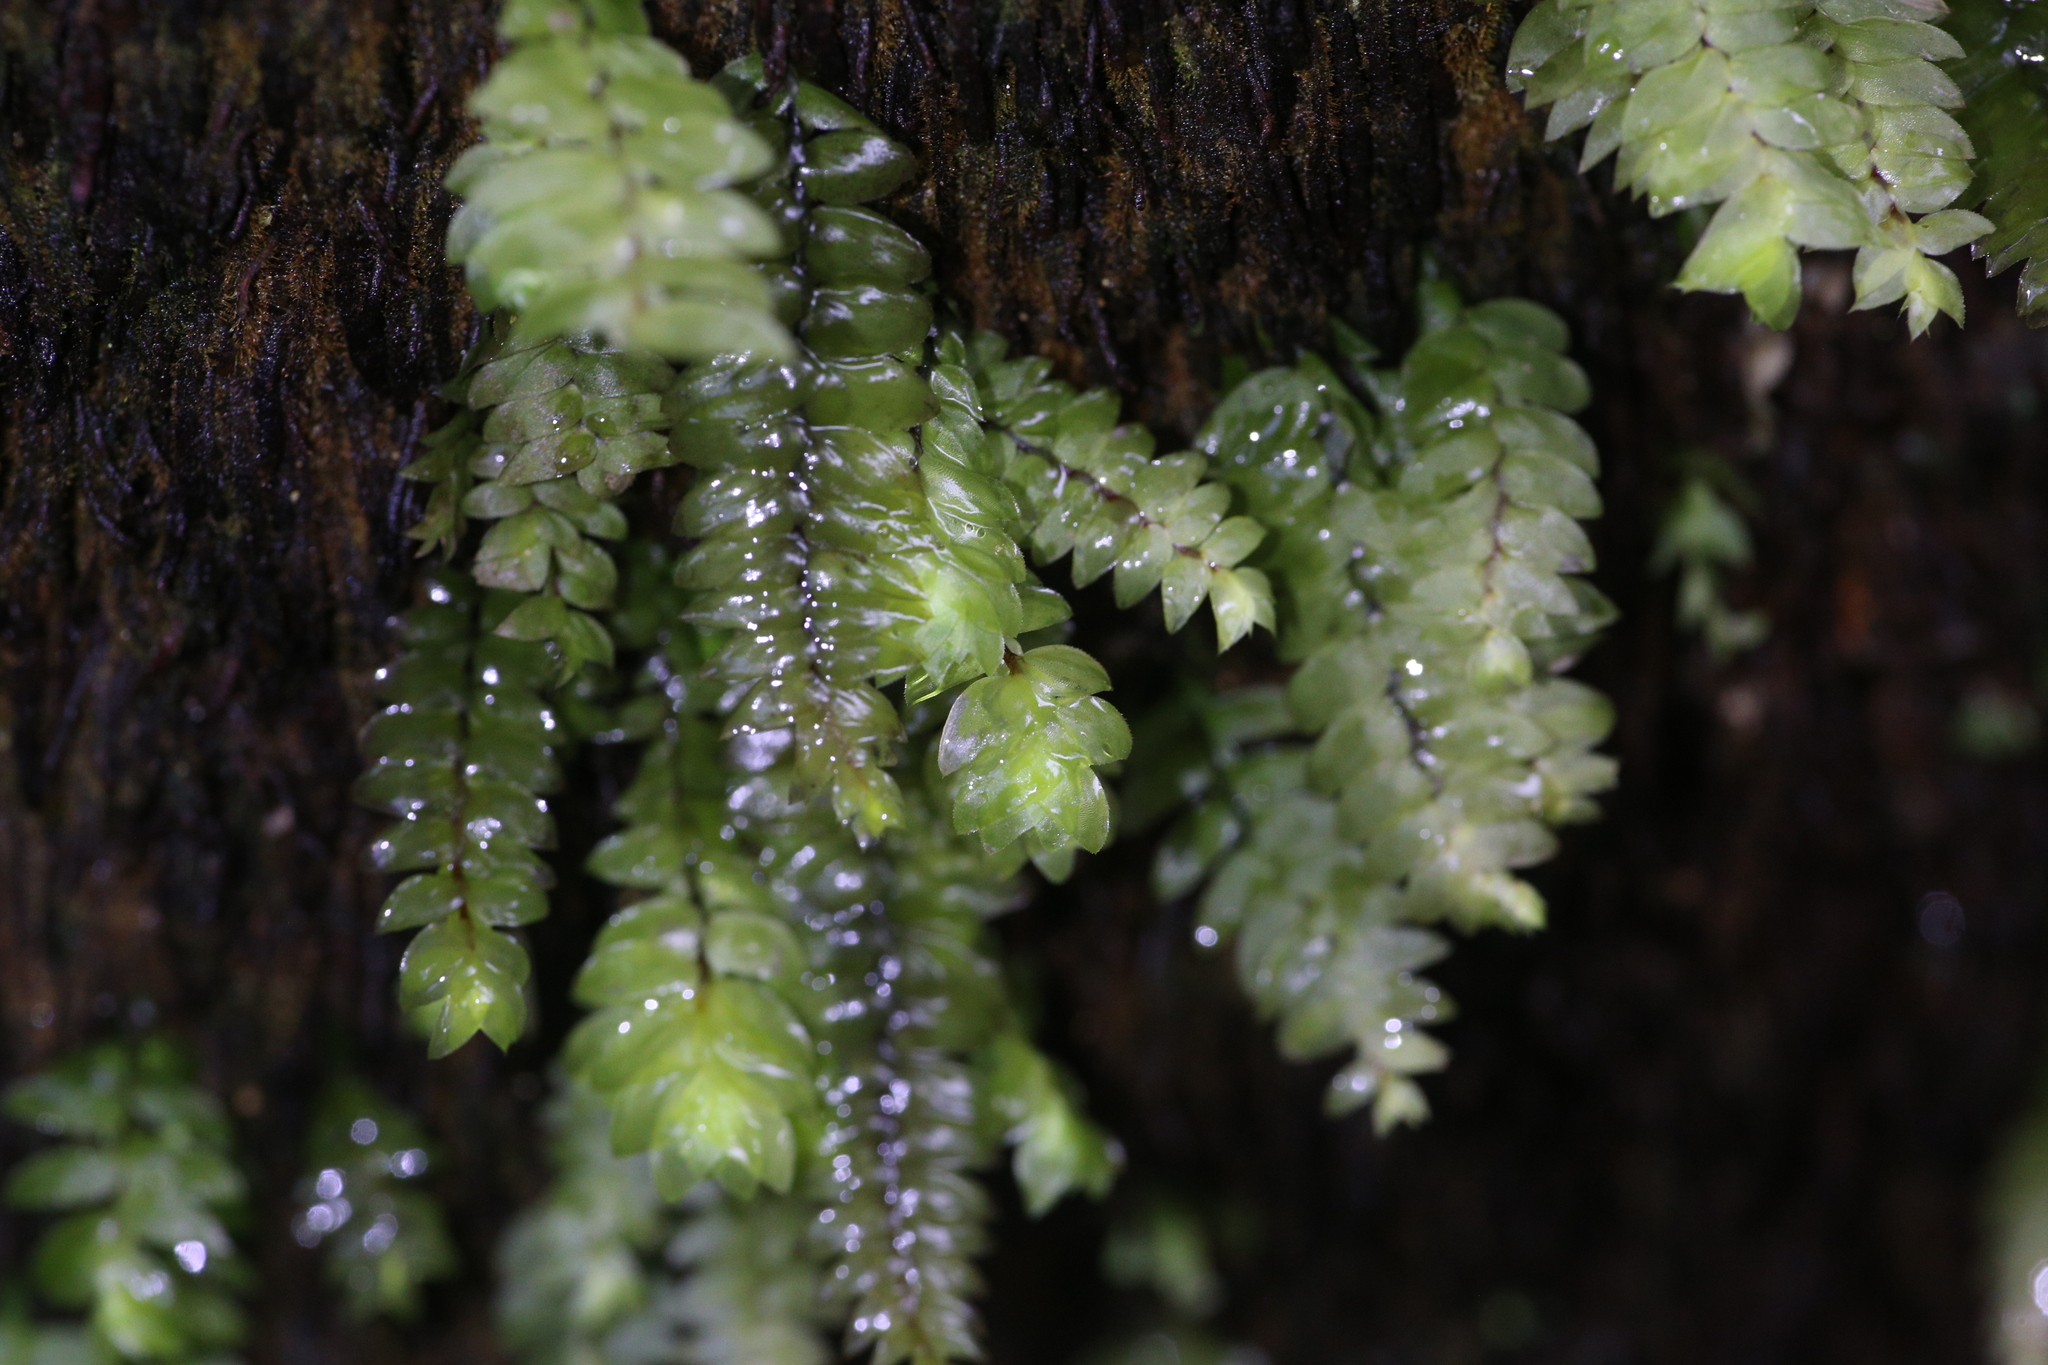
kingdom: Plantae
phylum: Bryophyta
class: Bryopsida
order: Hypopterygiales
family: Hypopterygiaceae
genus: Cyathophorum
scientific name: Cyathophorum bulbosum
